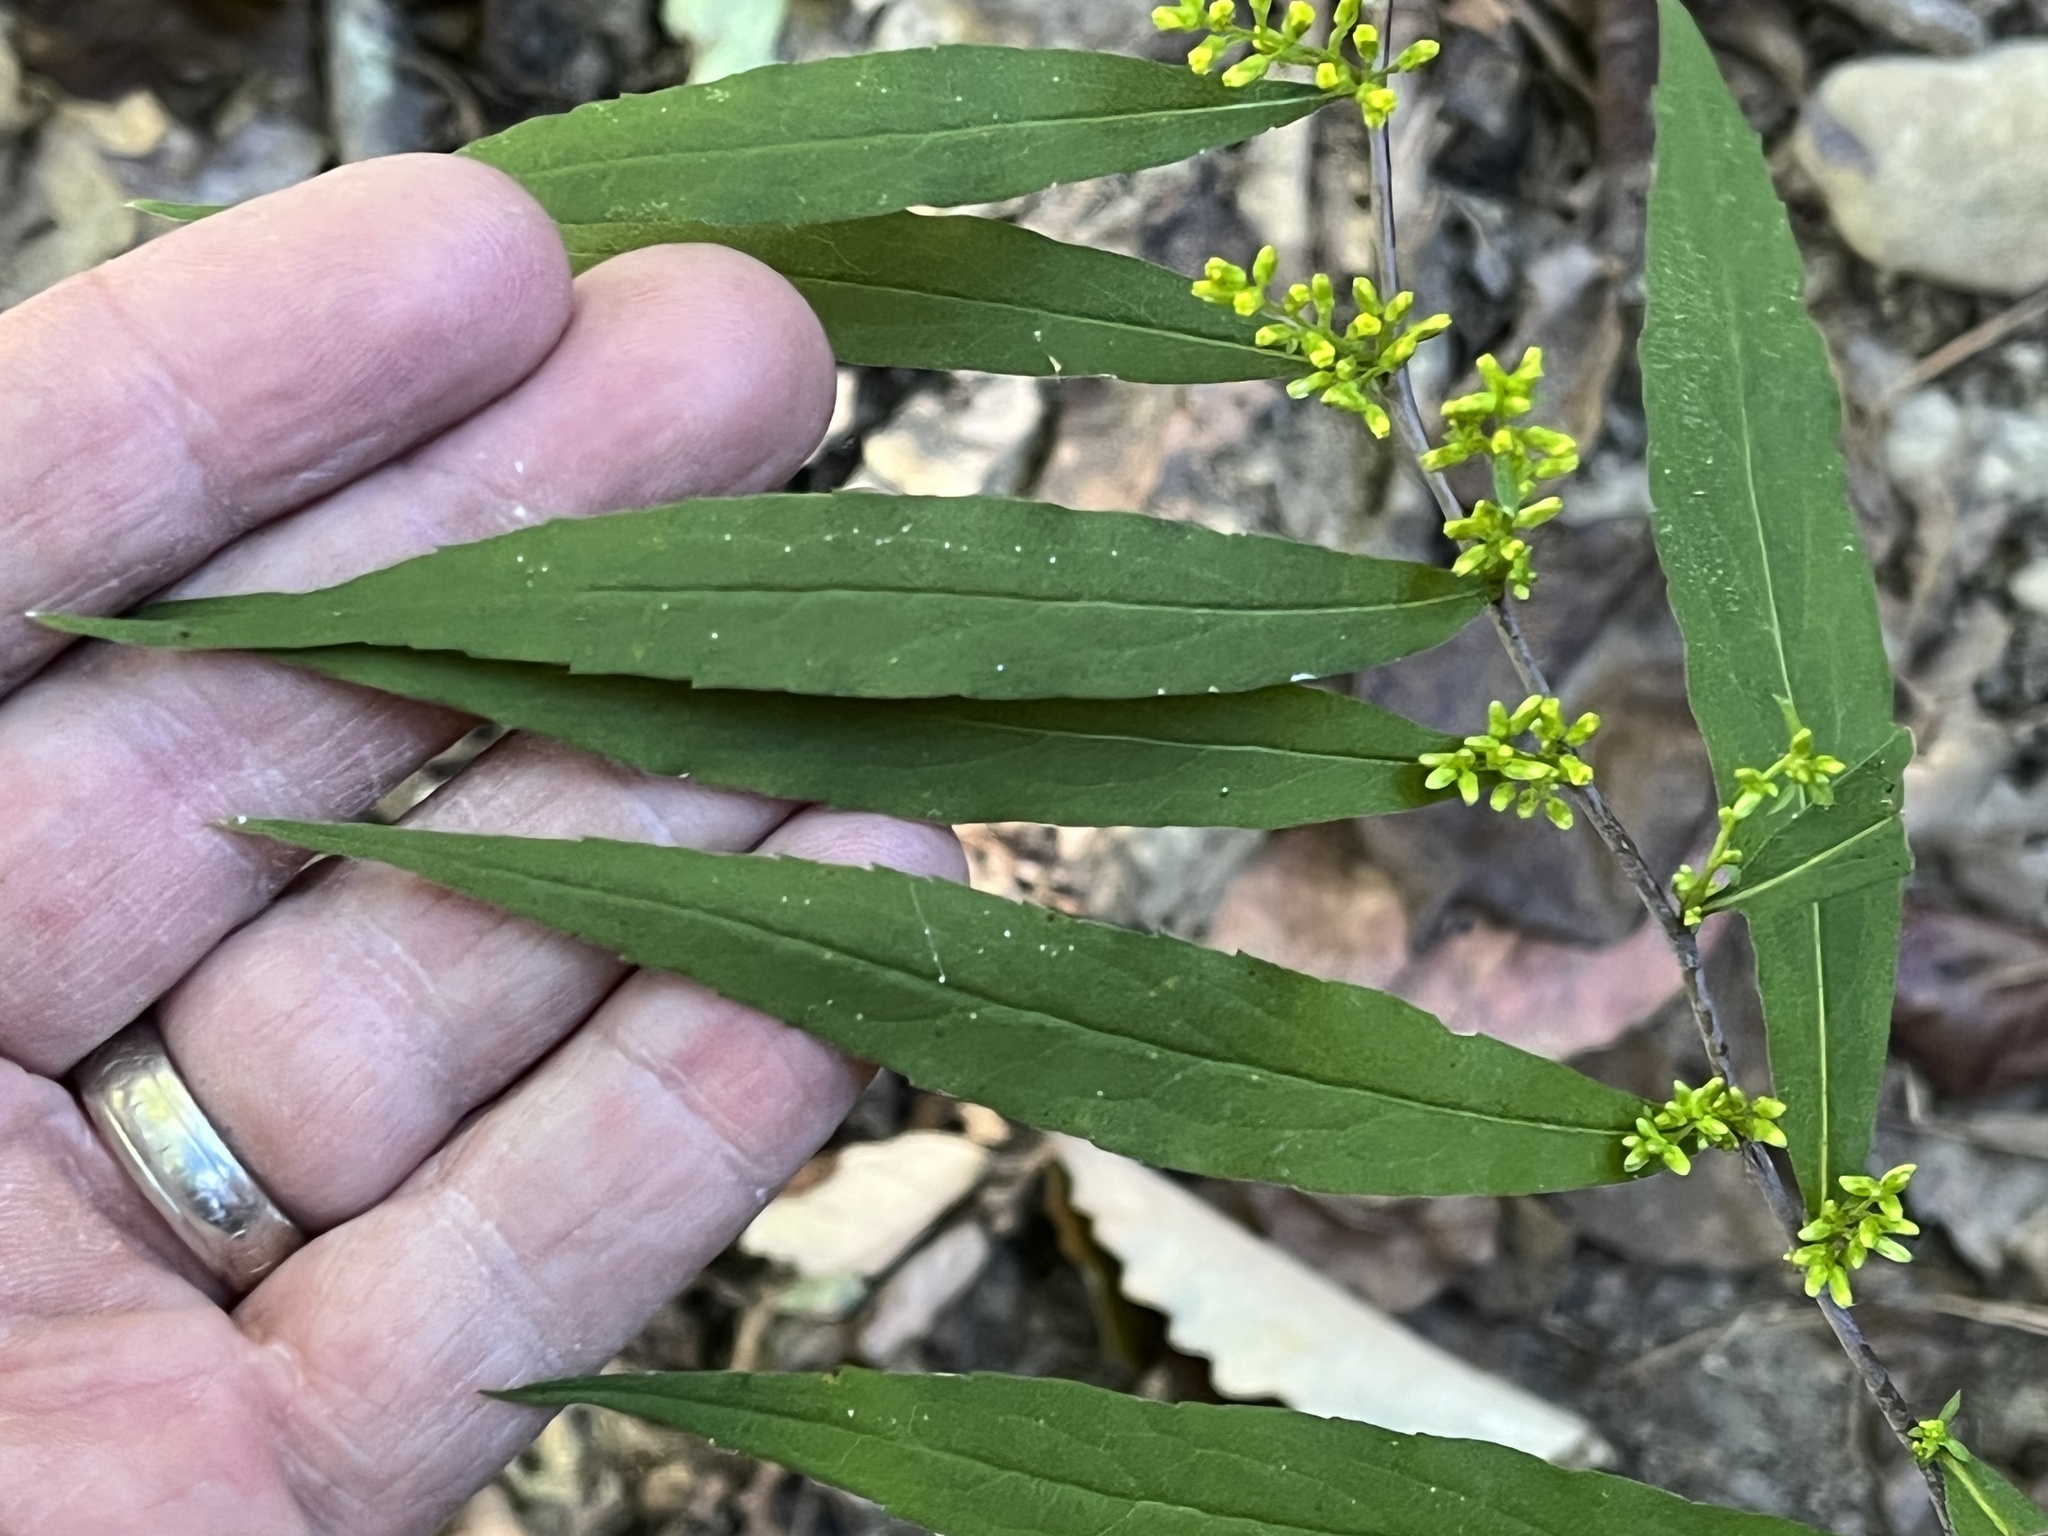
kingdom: Plantae
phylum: Tracheophyta
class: Magnoliopsida
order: Asterales
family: Asteraceae
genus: Solidago
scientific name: Solidago caesia
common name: Woodland goldenrod
